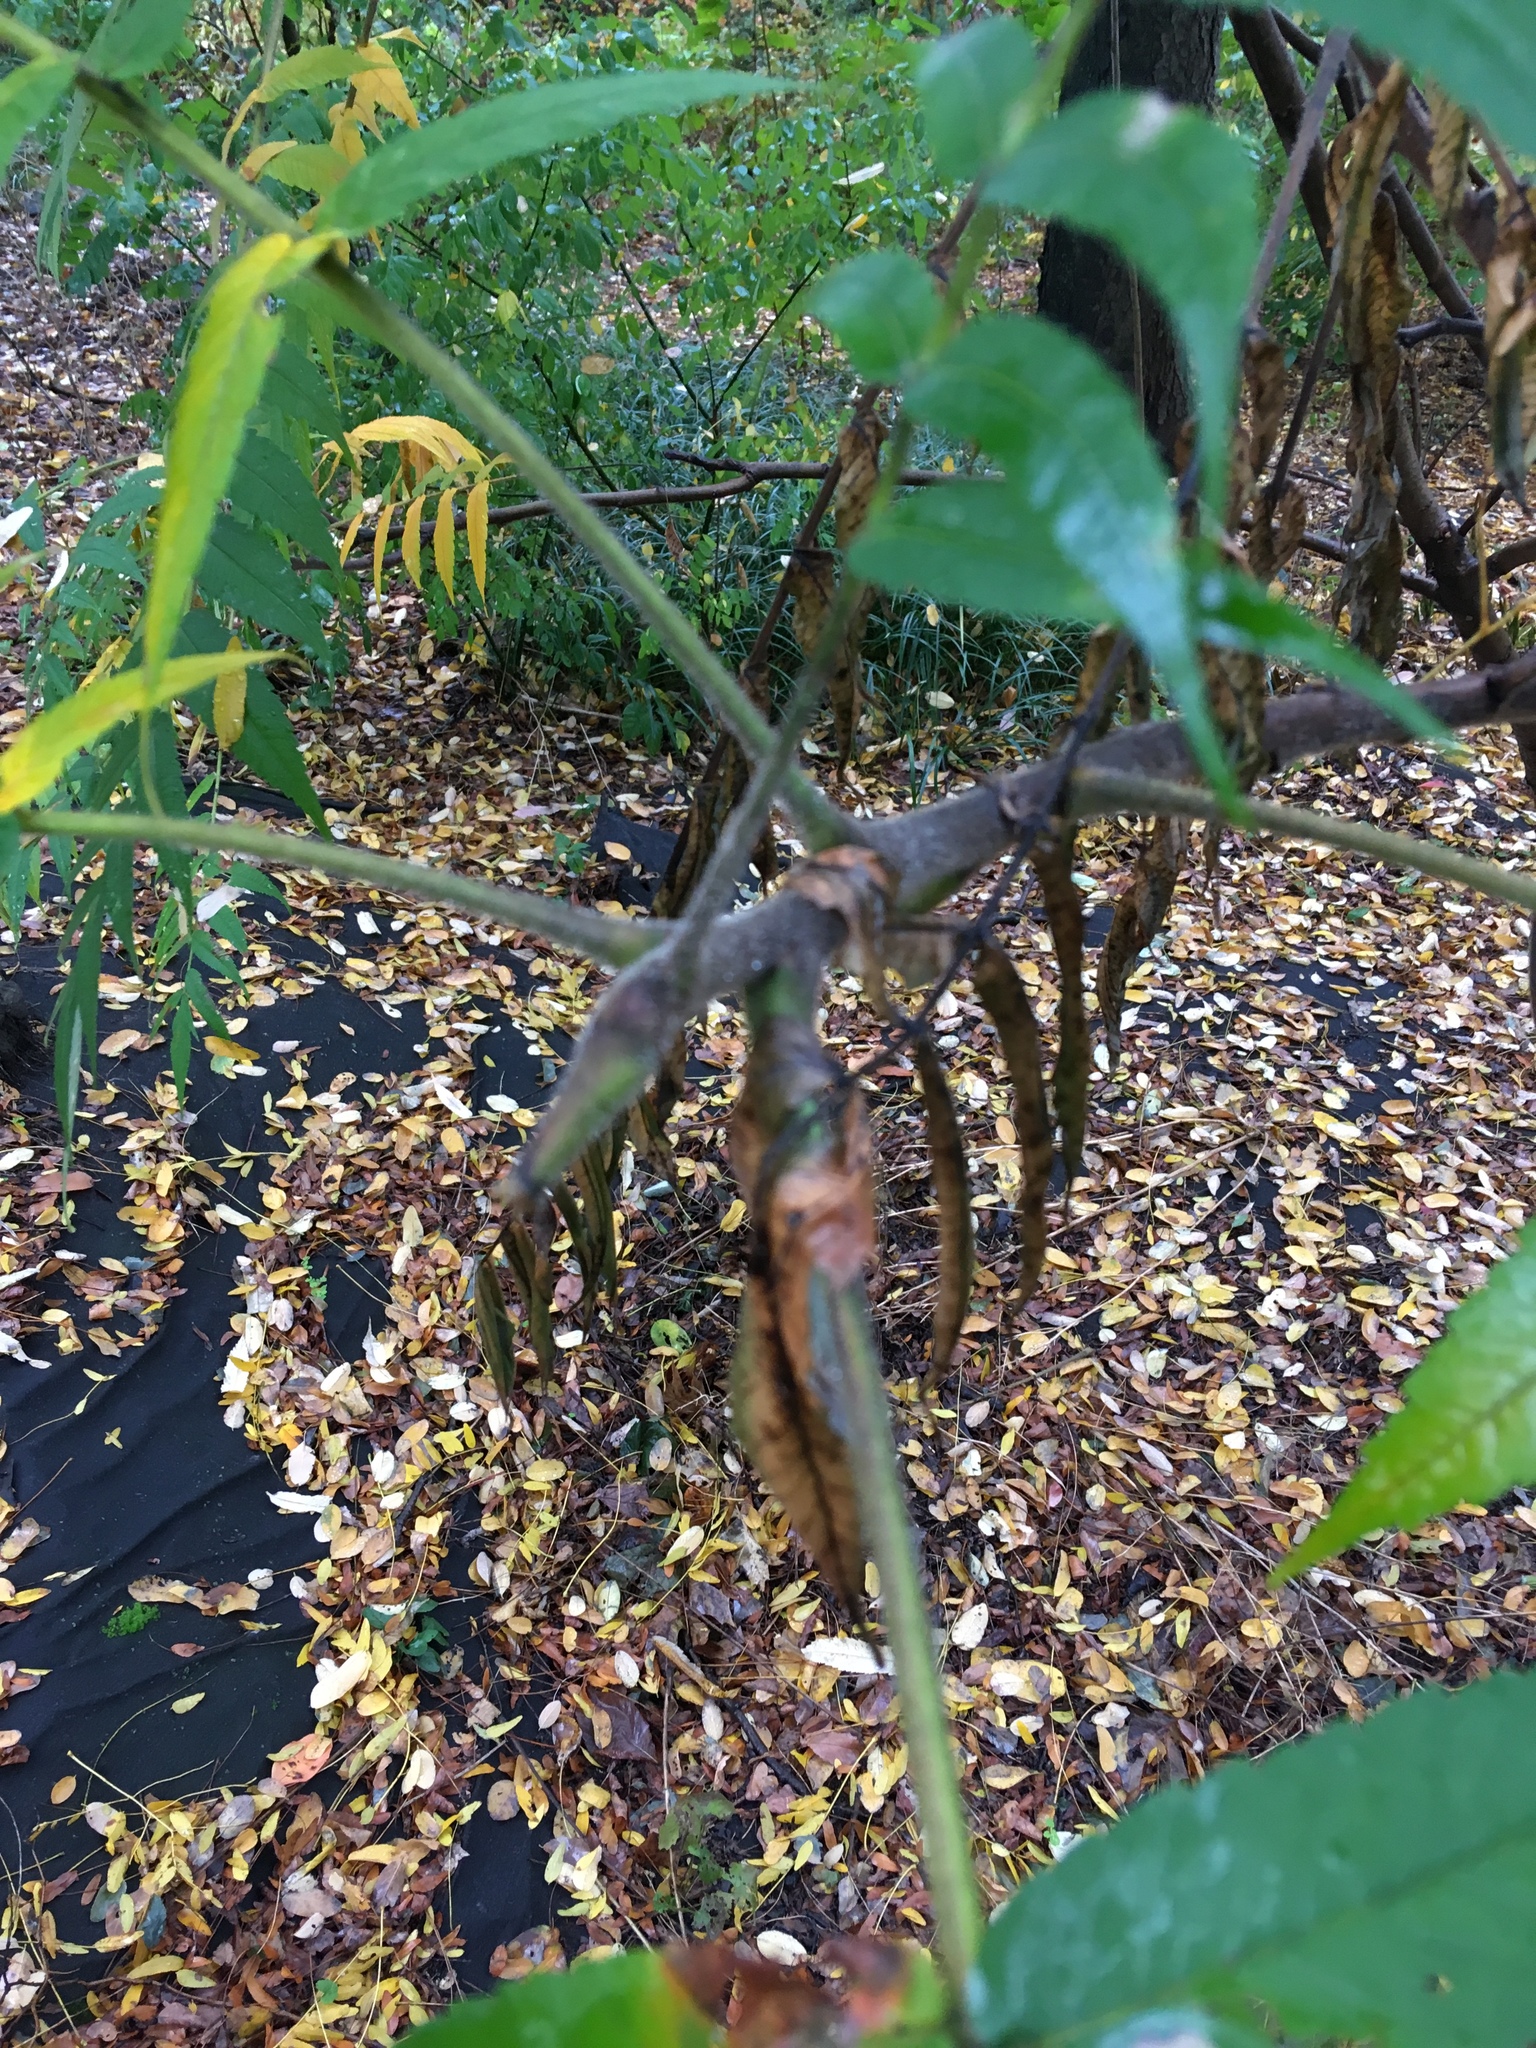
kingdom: Plantae
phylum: Tracheophyta
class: Magnoliopsida
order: Sapindales
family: Anacardiaceae
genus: Rhus
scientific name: Rhus typhina
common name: Staghorn sumac
